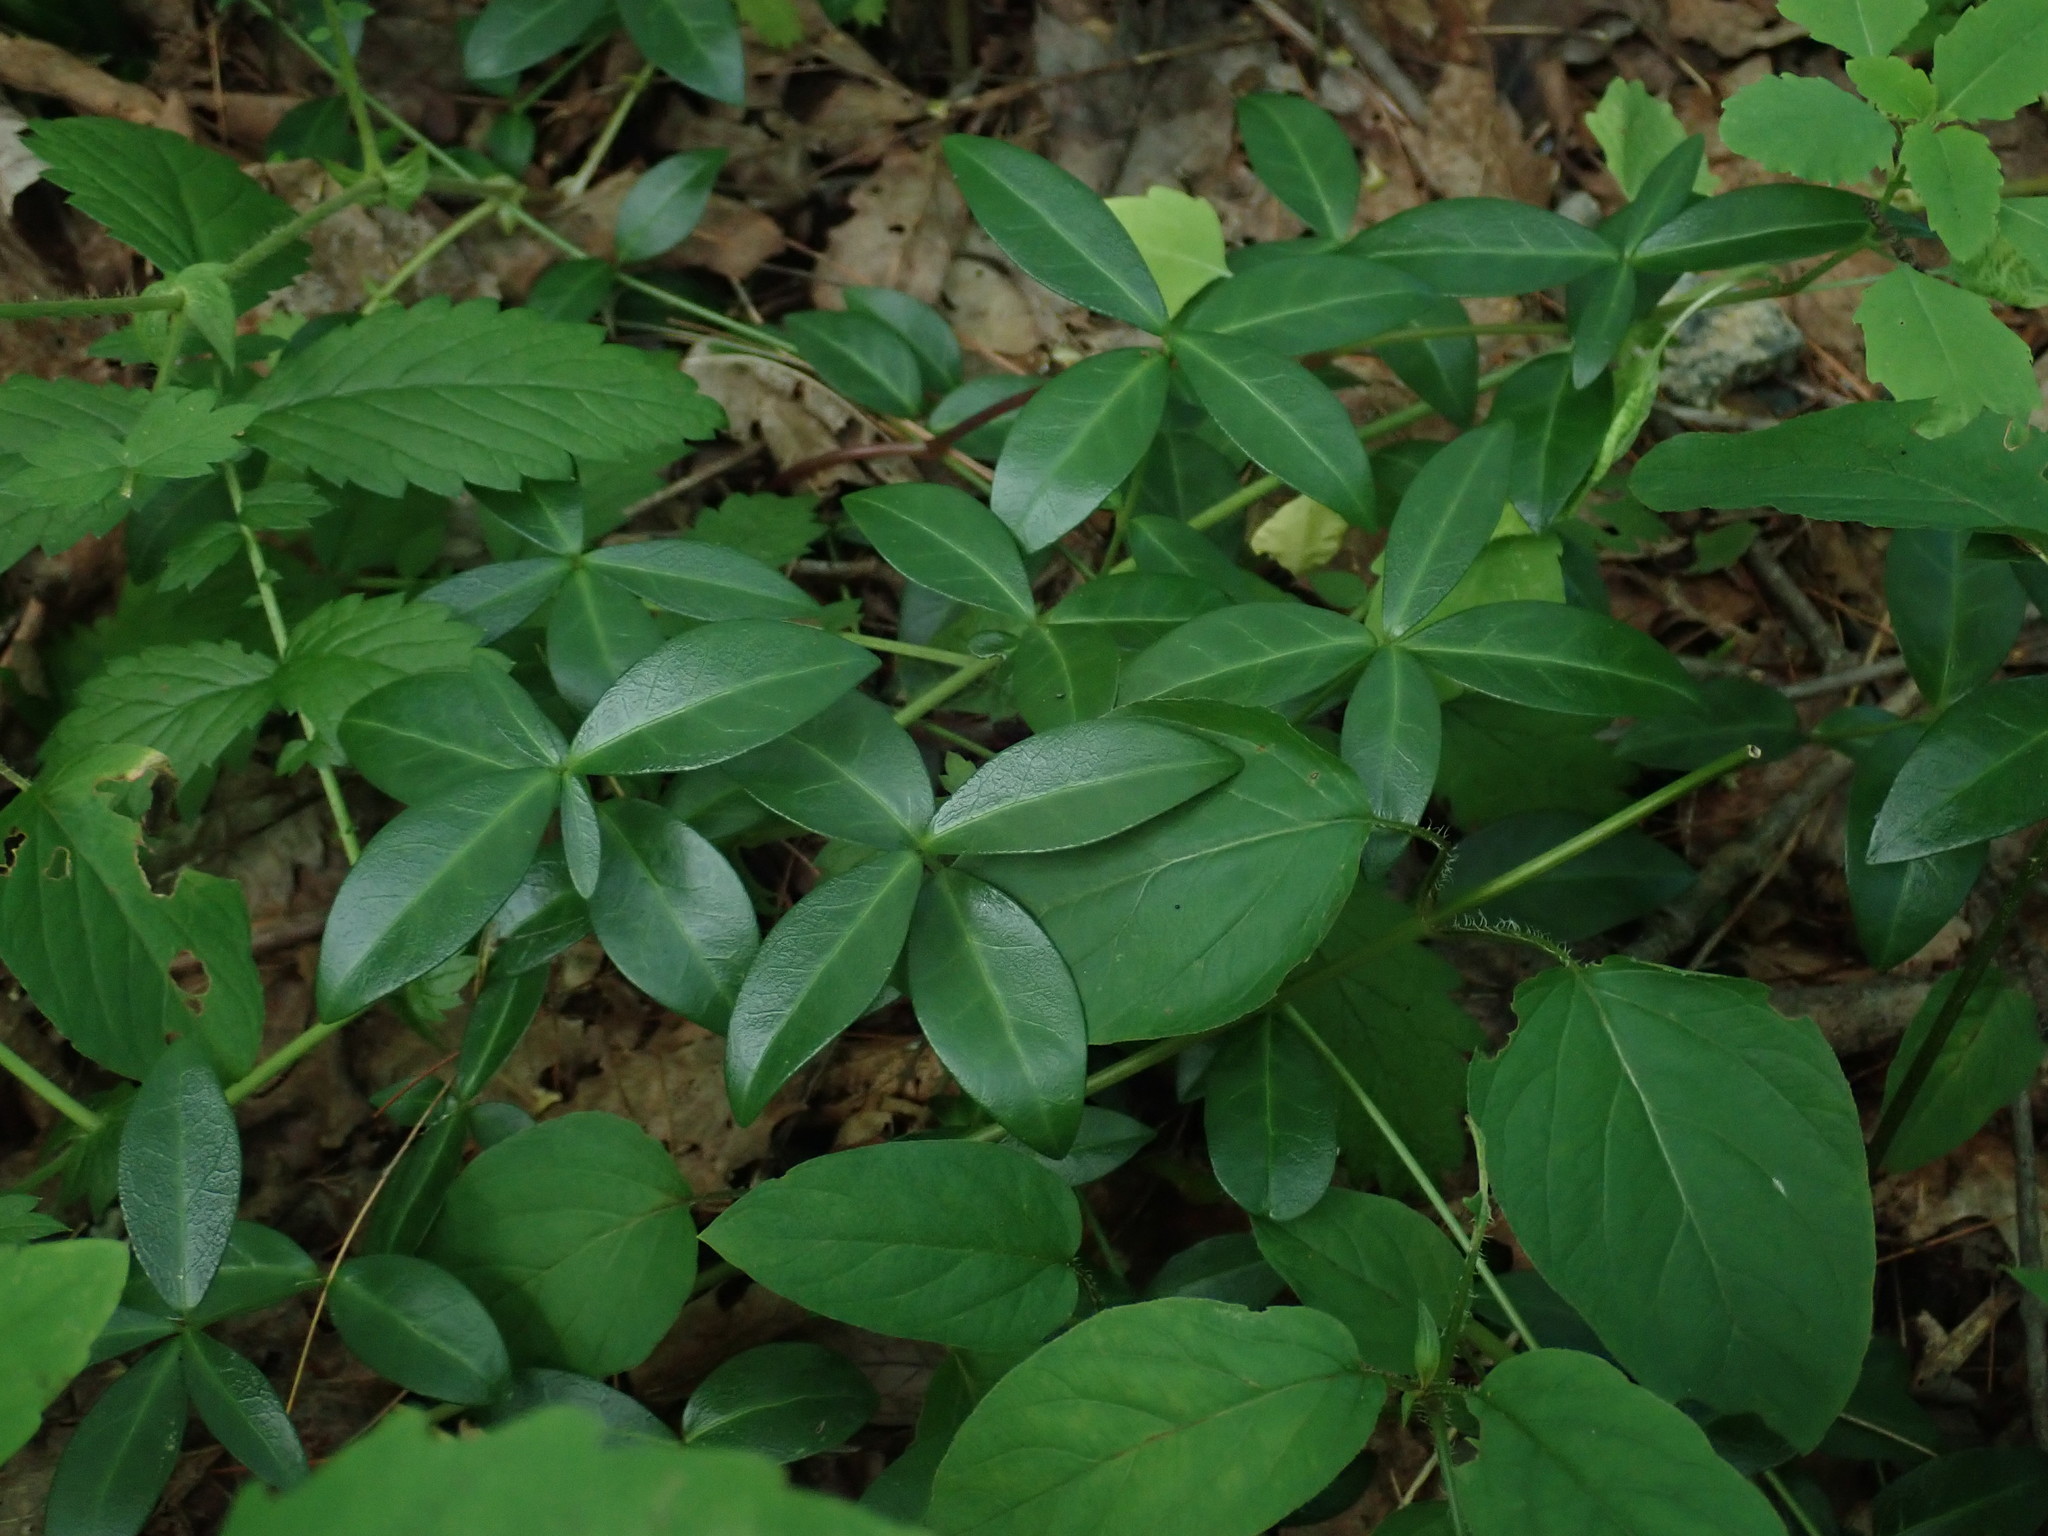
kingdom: Plantae
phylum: Tracheophyta
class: Magnoliopsida
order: Gentianales
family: Apocynaceae
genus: Vinca
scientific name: Vinca minor
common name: Lesser periwinkle
